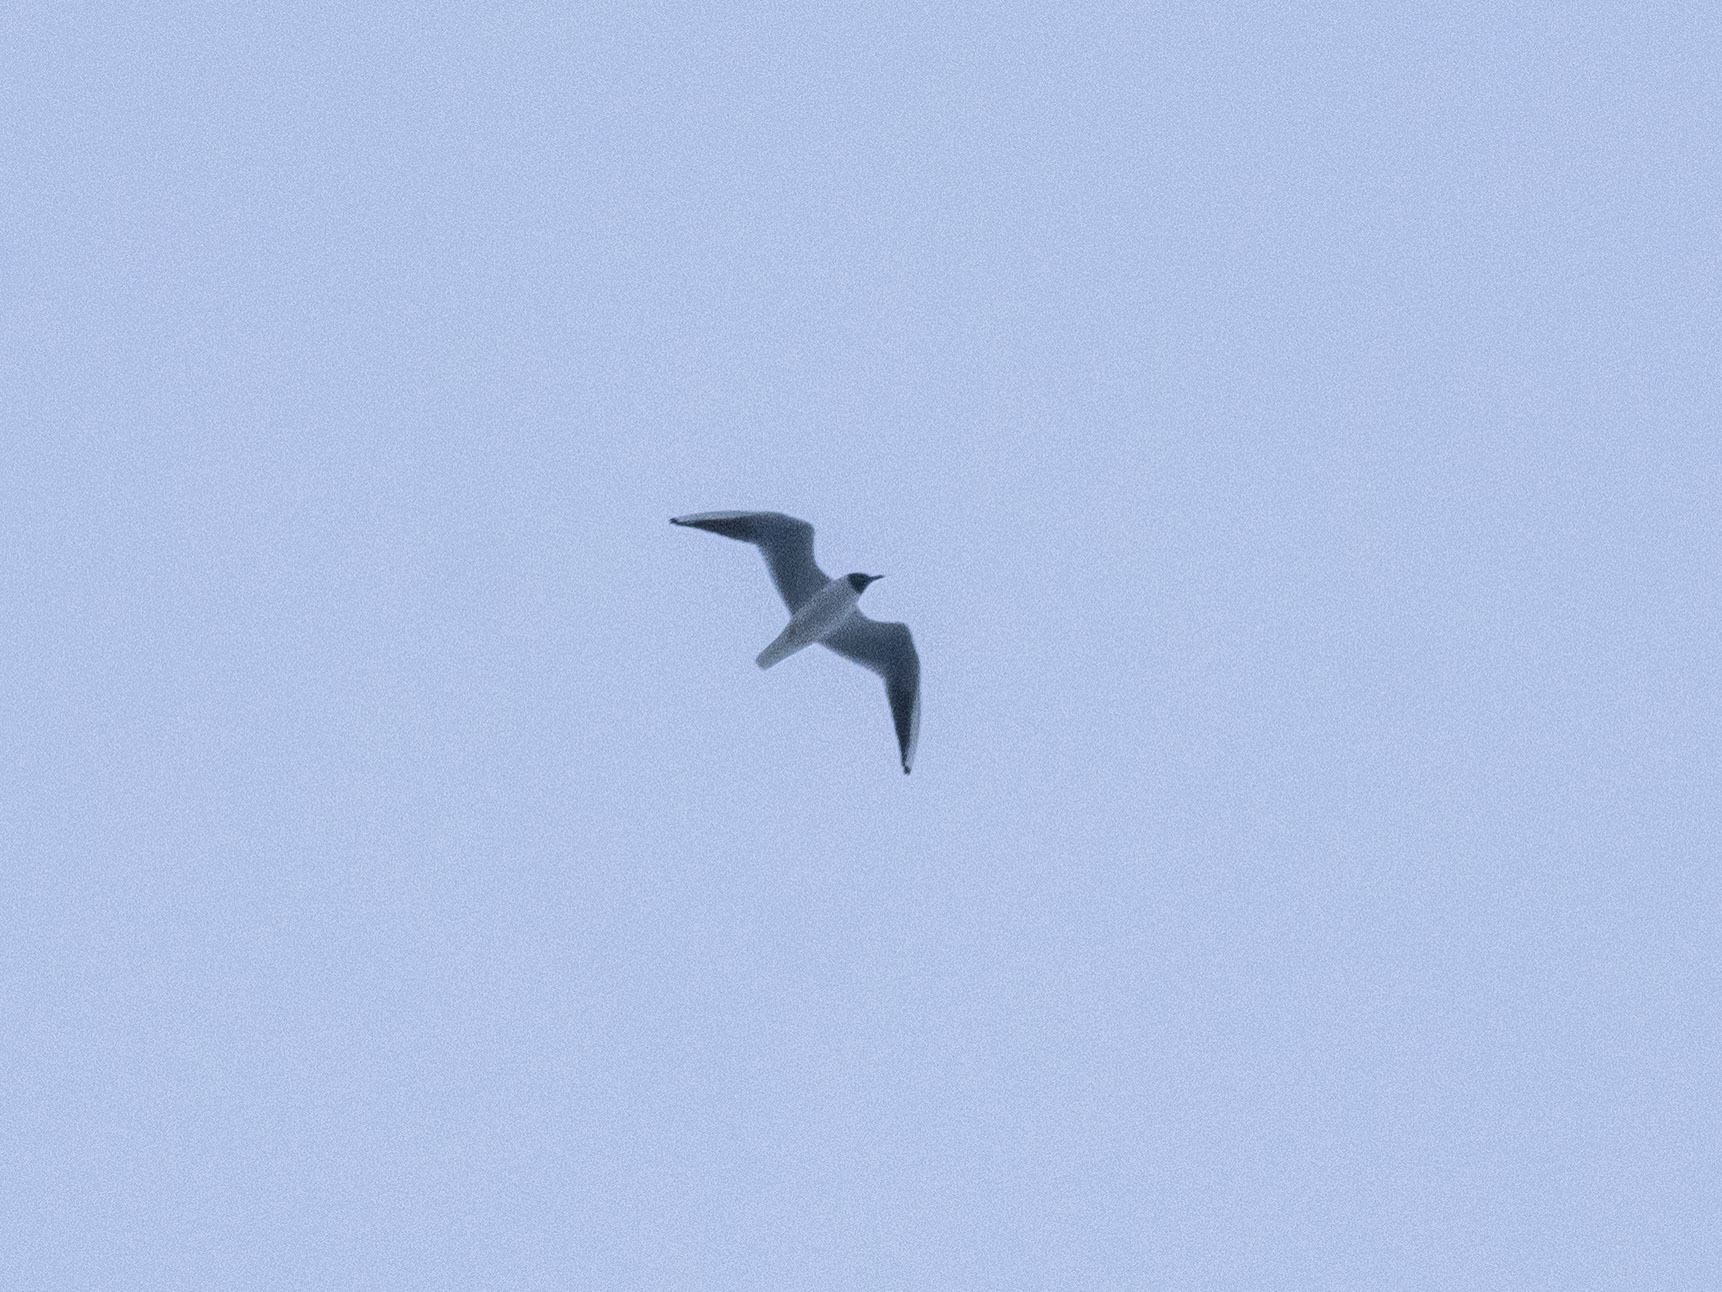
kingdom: Animalia
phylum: Chordata
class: Aves
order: Charadriiformes
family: Laridae
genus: Chroicocephalus
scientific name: Chroicocephalus ridibundus
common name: Black-headed gull
